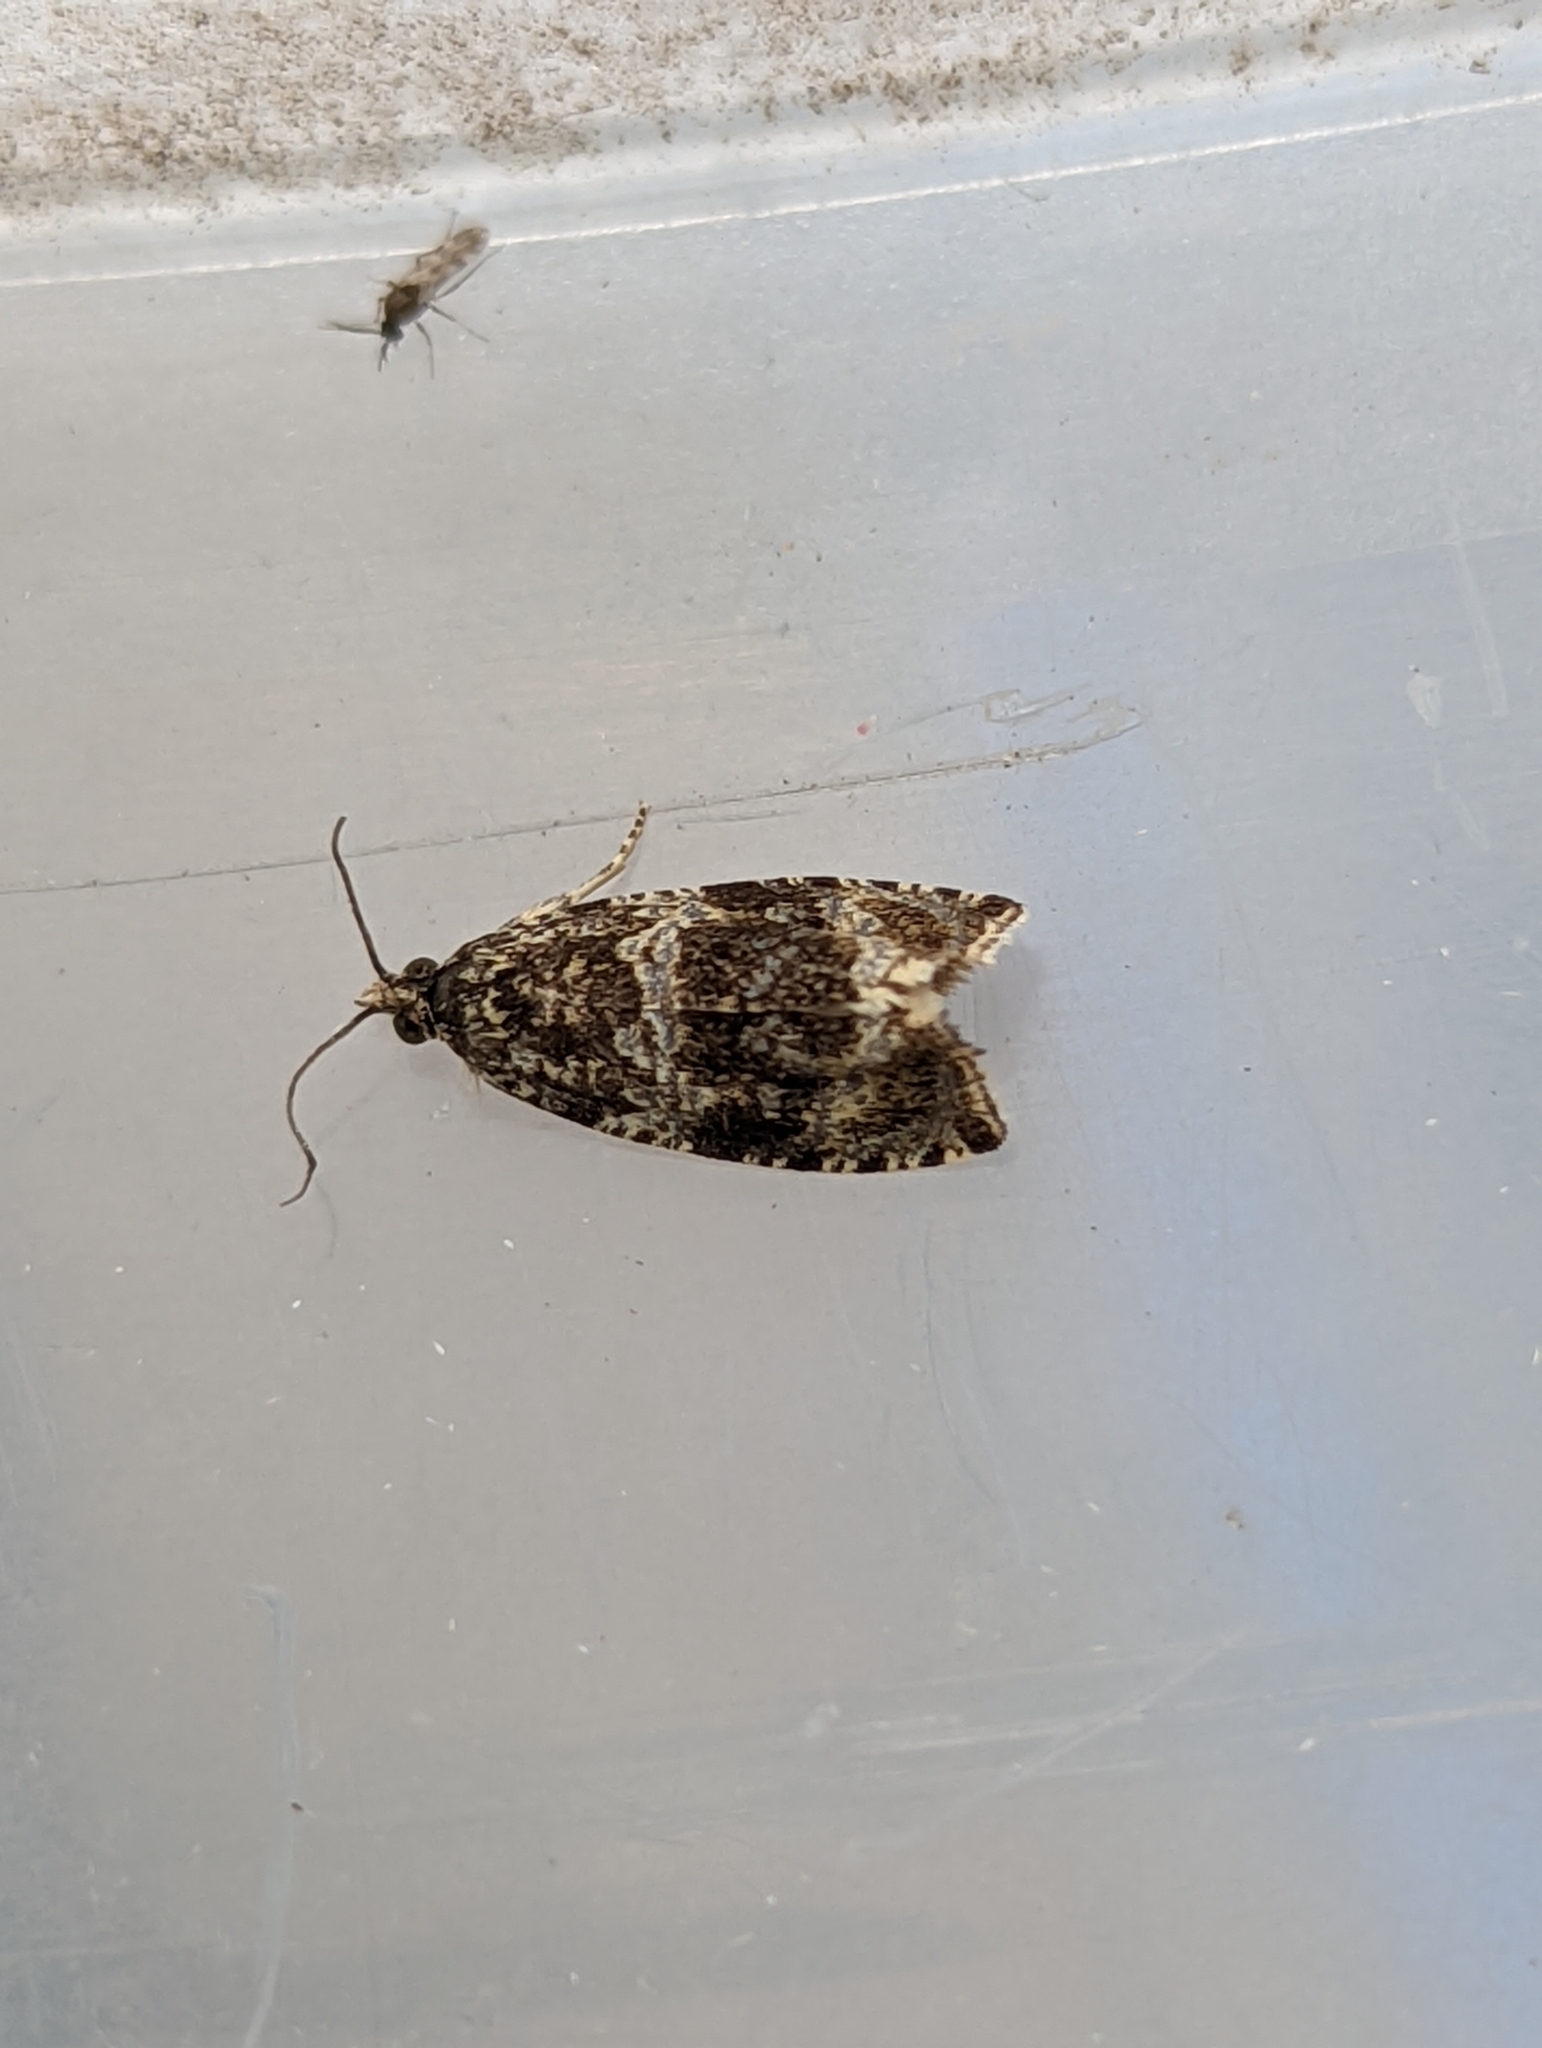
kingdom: Animalia
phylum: Arthropoda
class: Insecta
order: Lepidoptera
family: Tortricidae
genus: Syricoris
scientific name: Syricoris lacunana
